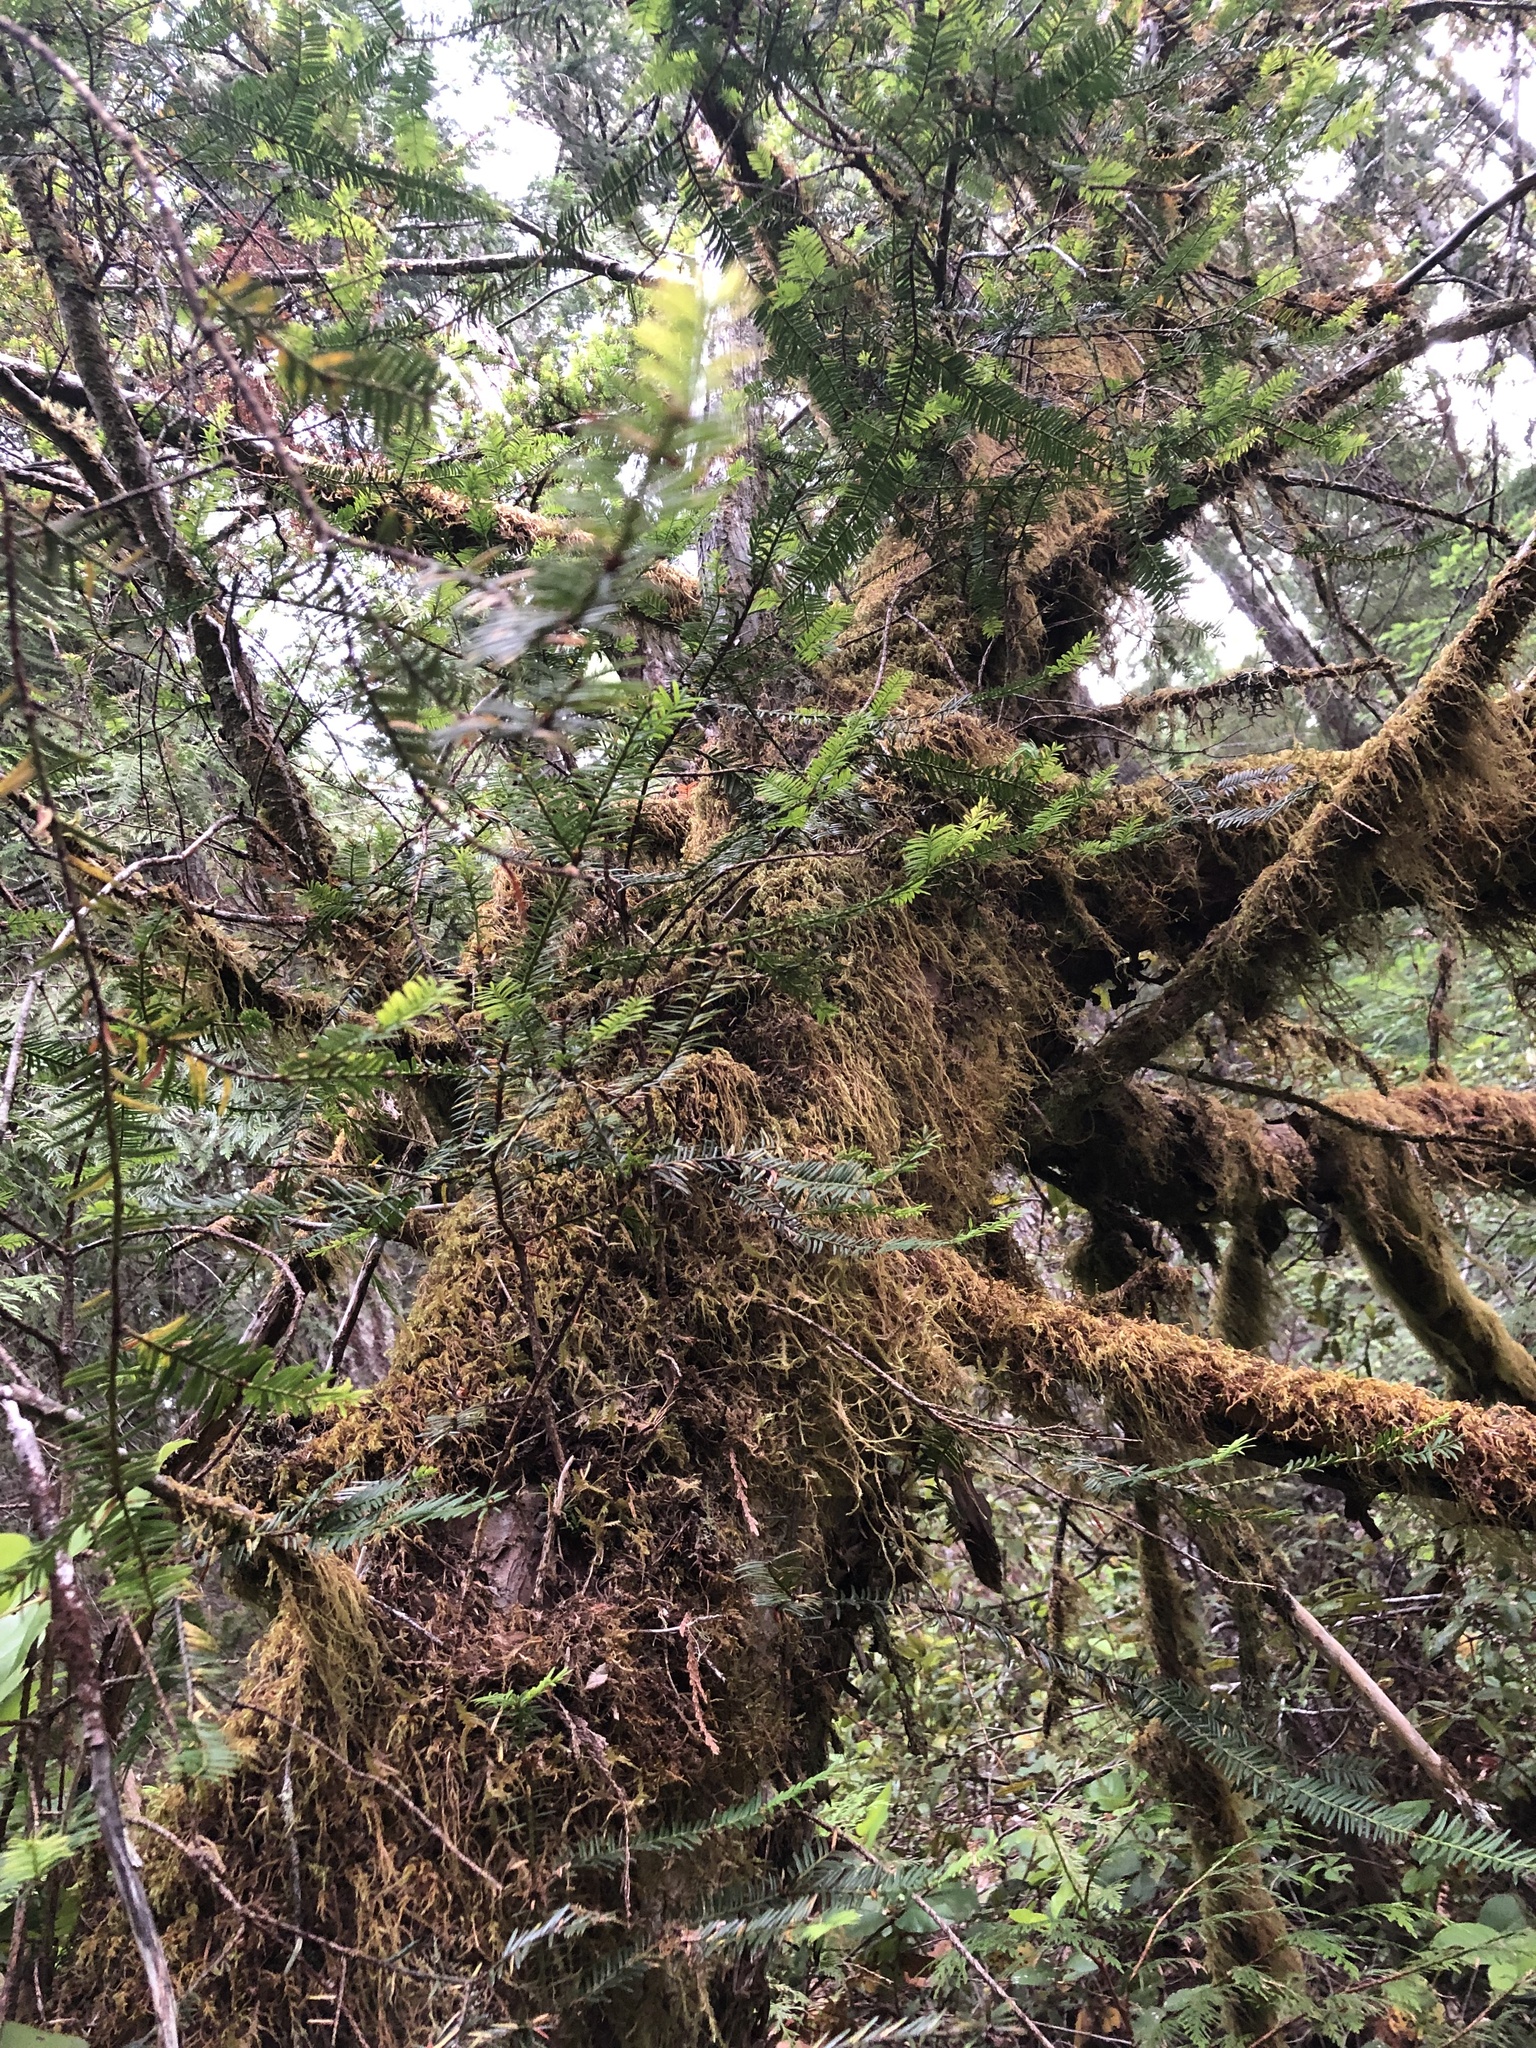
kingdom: Plantae
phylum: Tracheophyta
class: Pinopsida
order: Pinales
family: Taxaceae
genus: Taxus
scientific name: Taxus brevifolia
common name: Pacific yew
